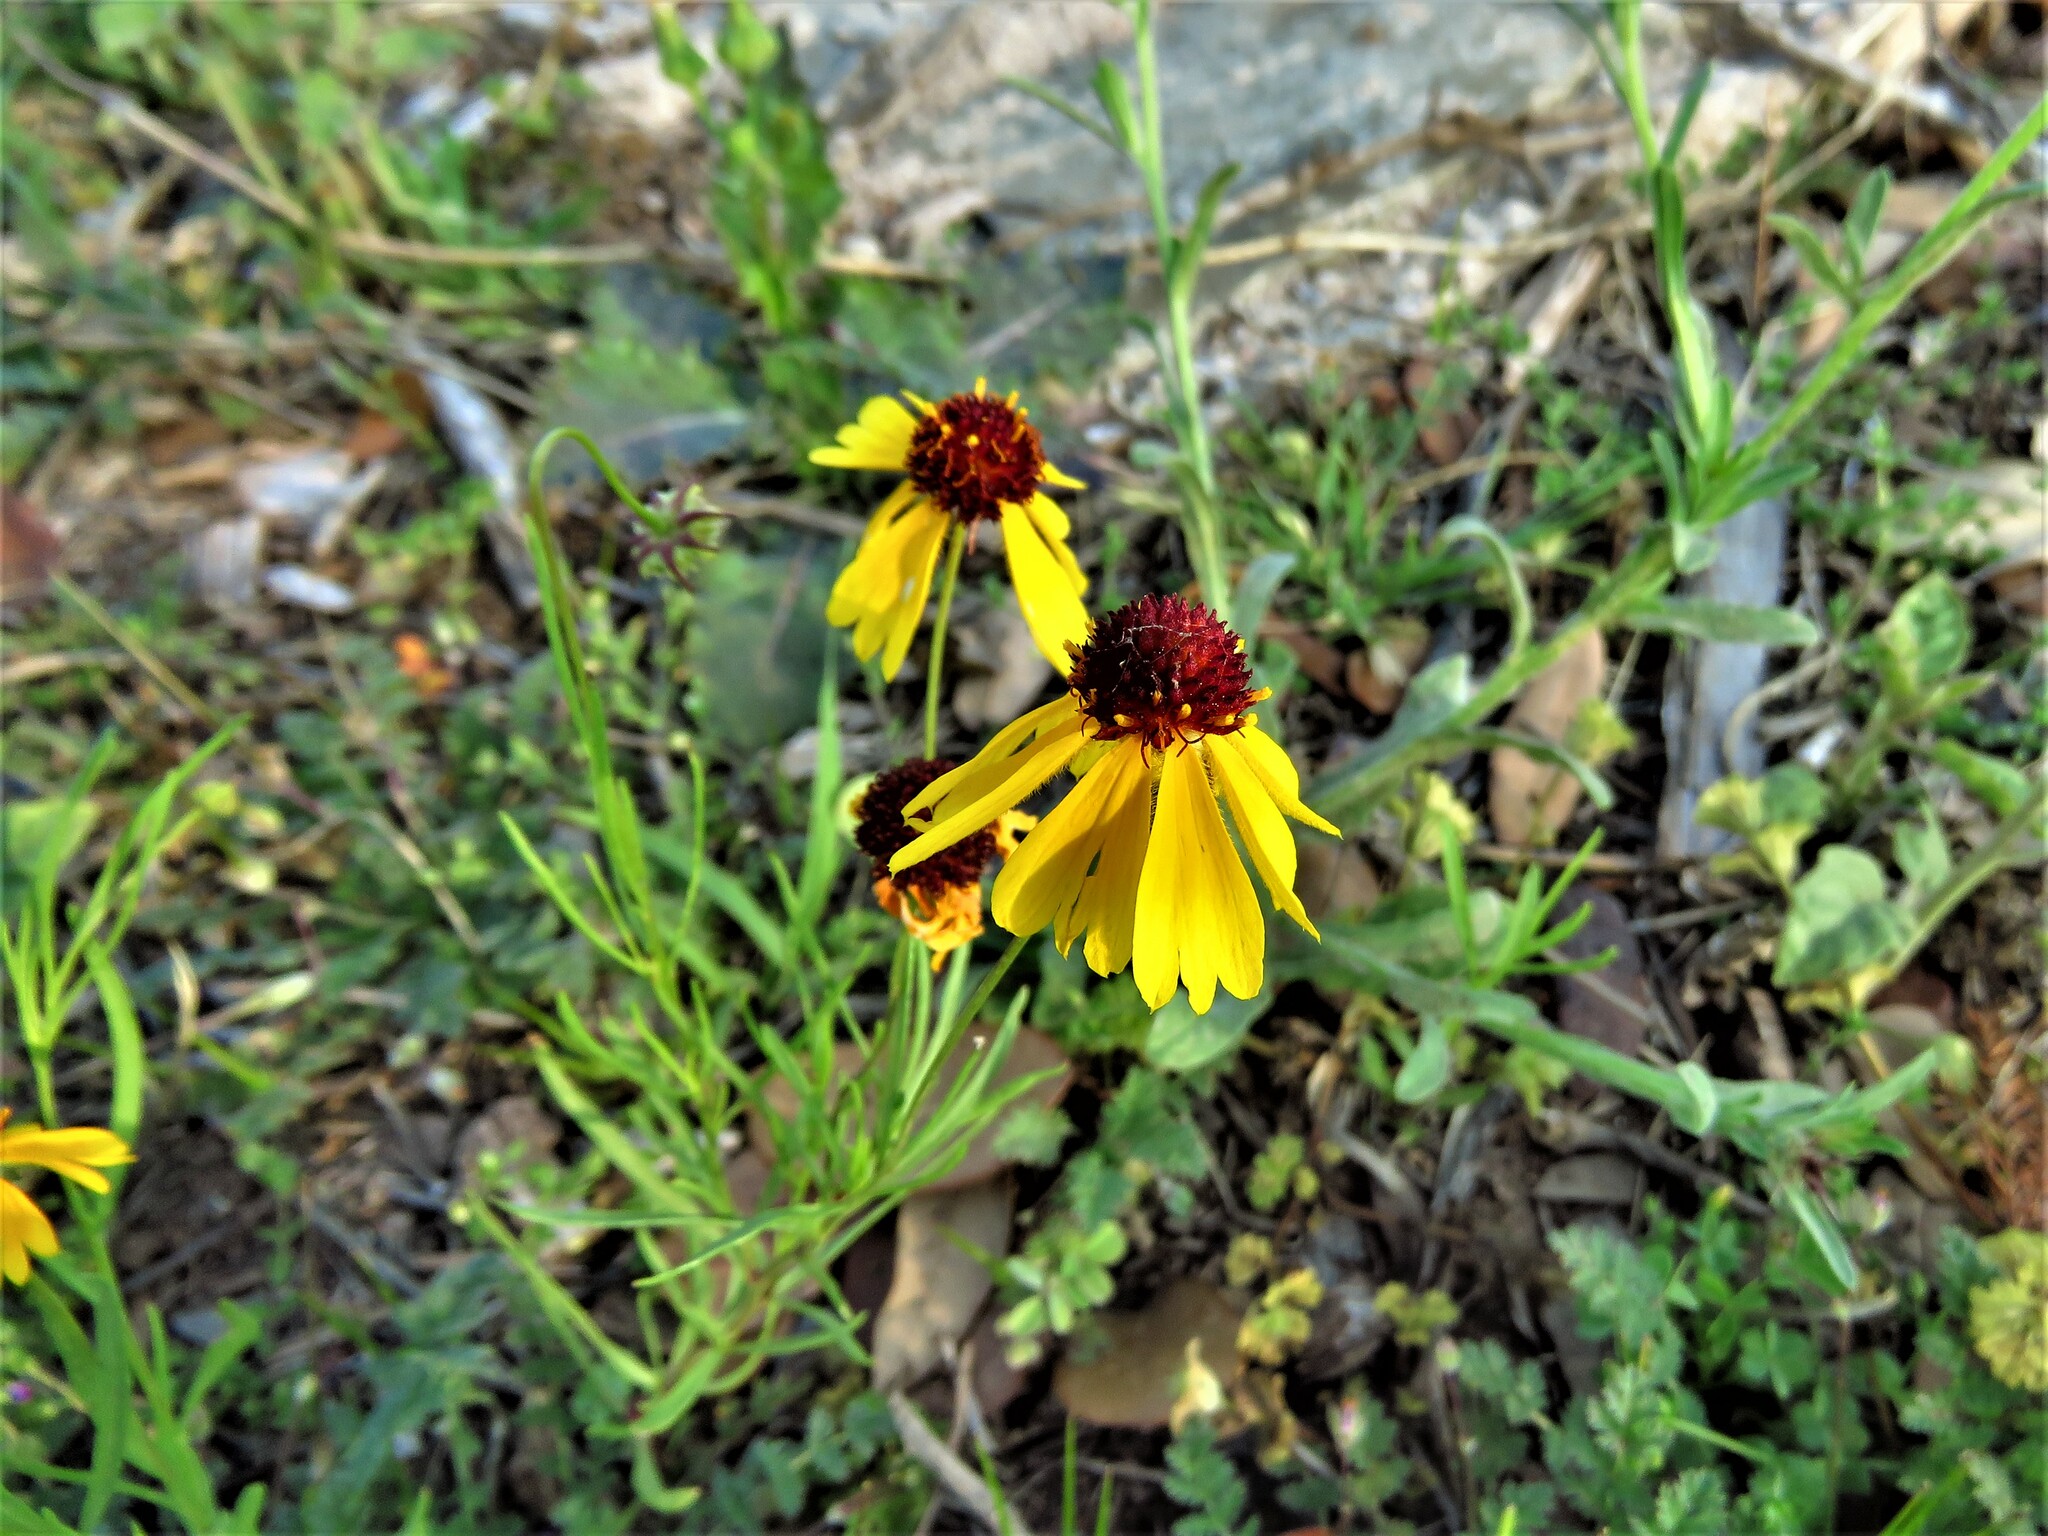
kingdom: Plantae
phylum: Tracheophyta
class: Magnoliopsida
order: Asterales
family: Asteraceae
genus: Helenium
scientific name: Helenium amarum
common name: Bitter sneezeweed
